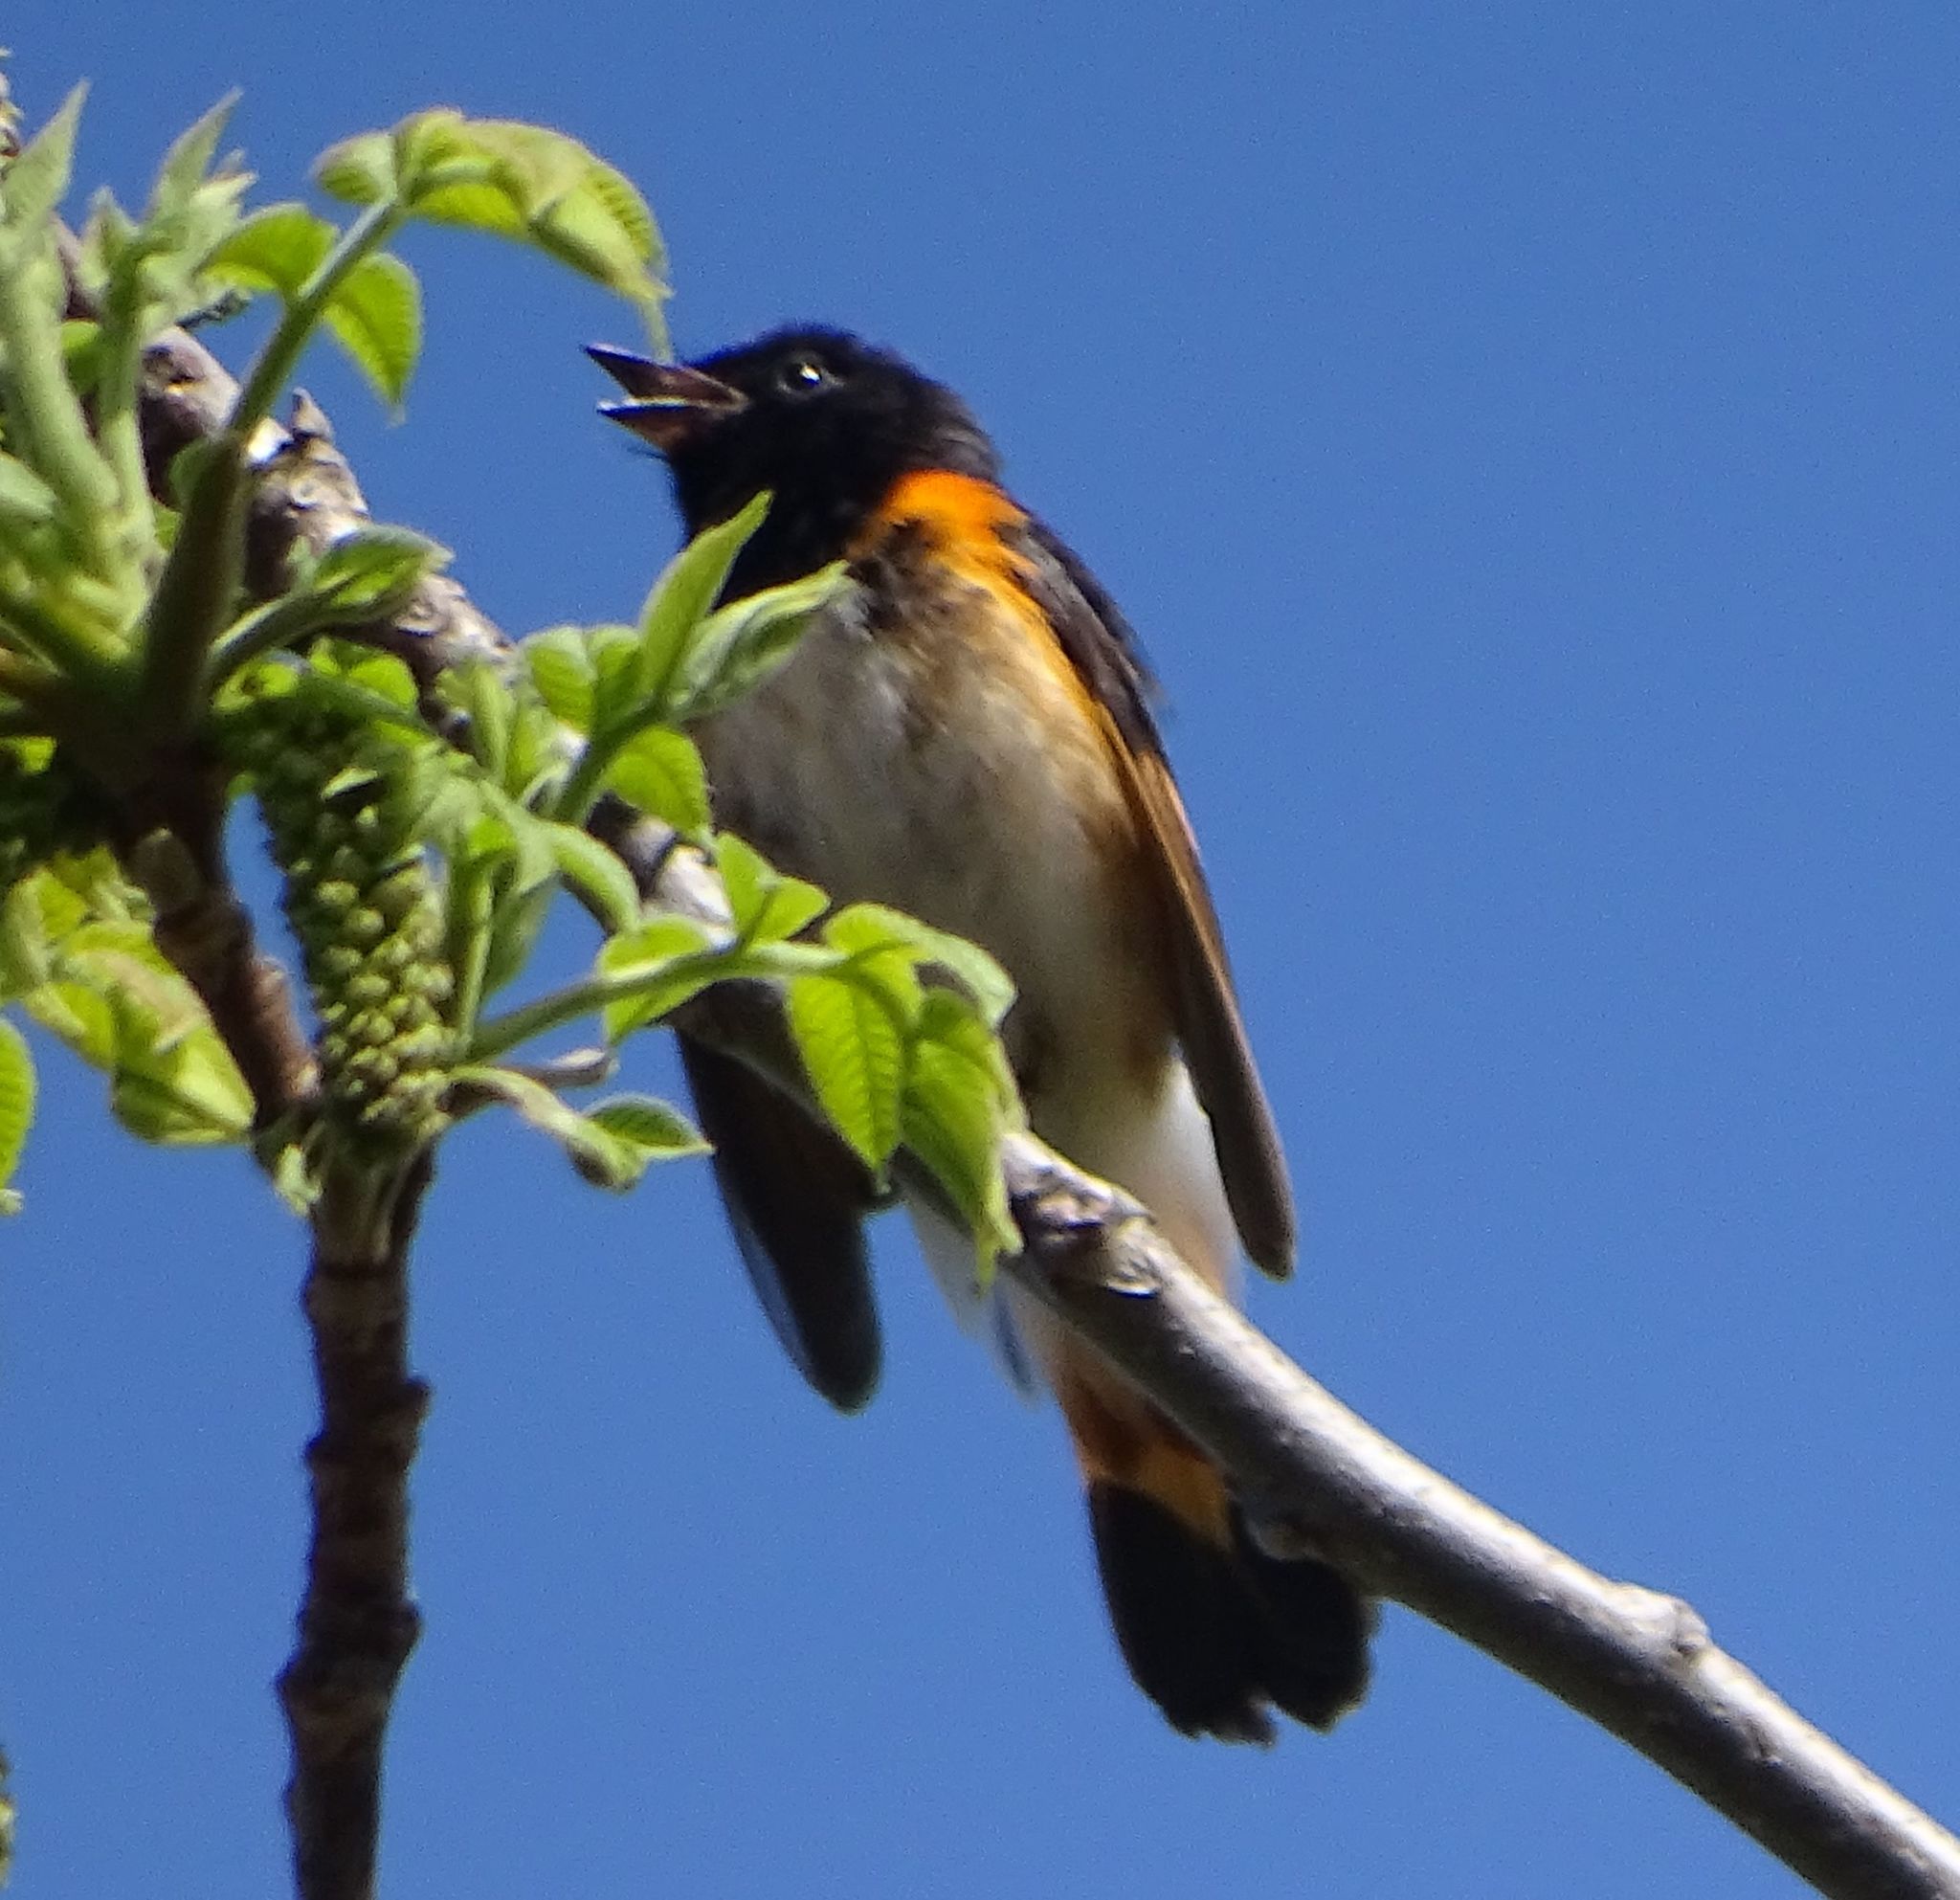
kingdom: Animalia
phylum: Chordata
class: Aves
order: Passeriformes
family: Parulidae
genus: Setophaga
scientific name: Setophaga ruticilla
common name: American redstart
